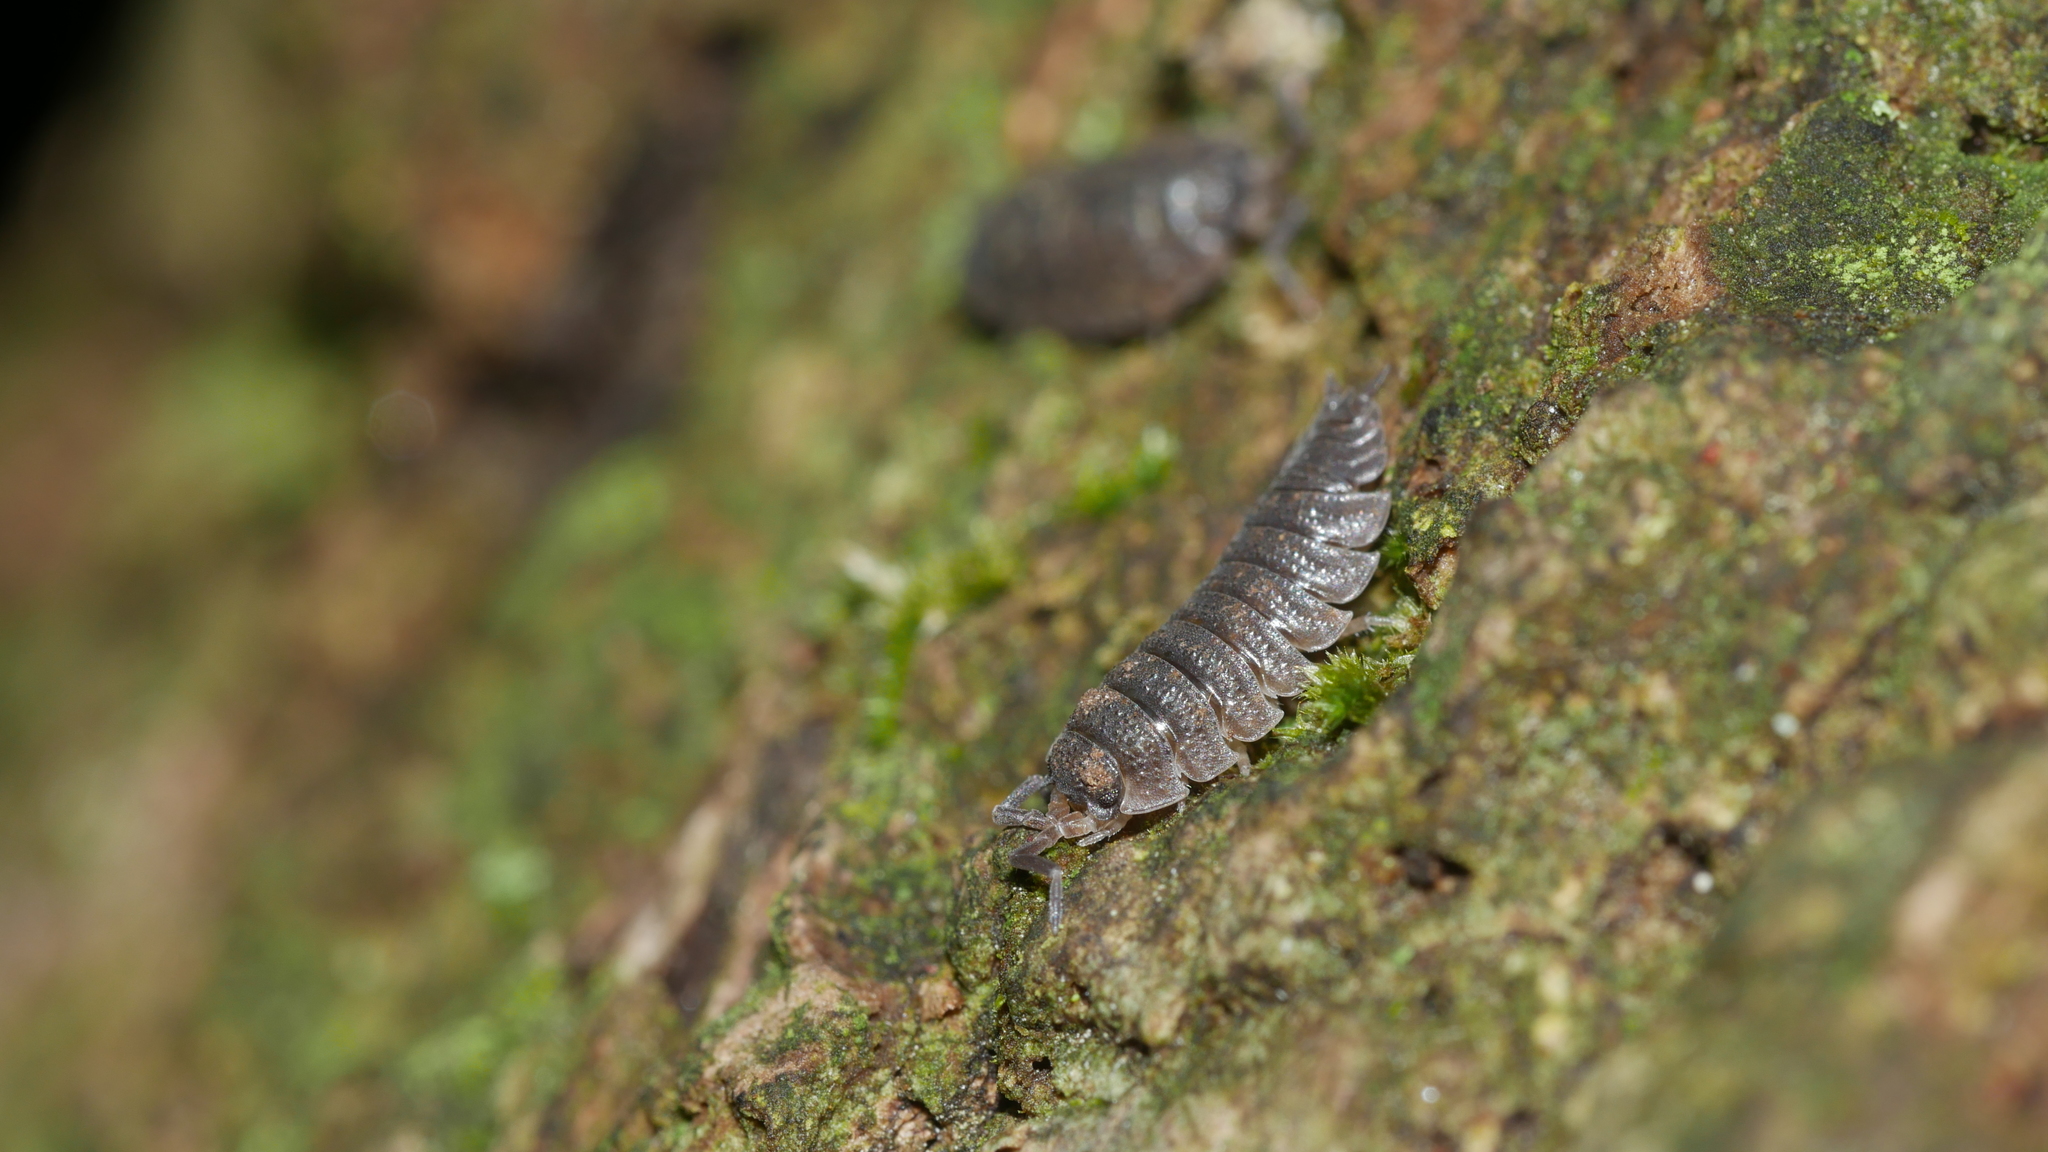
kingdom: Animalia
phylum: Arthropoda
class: Malacostraca
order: Isopoda
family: Porcellionidae
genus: Porcellio
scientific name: Porcellio scaber
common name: Common rough woodlouse
